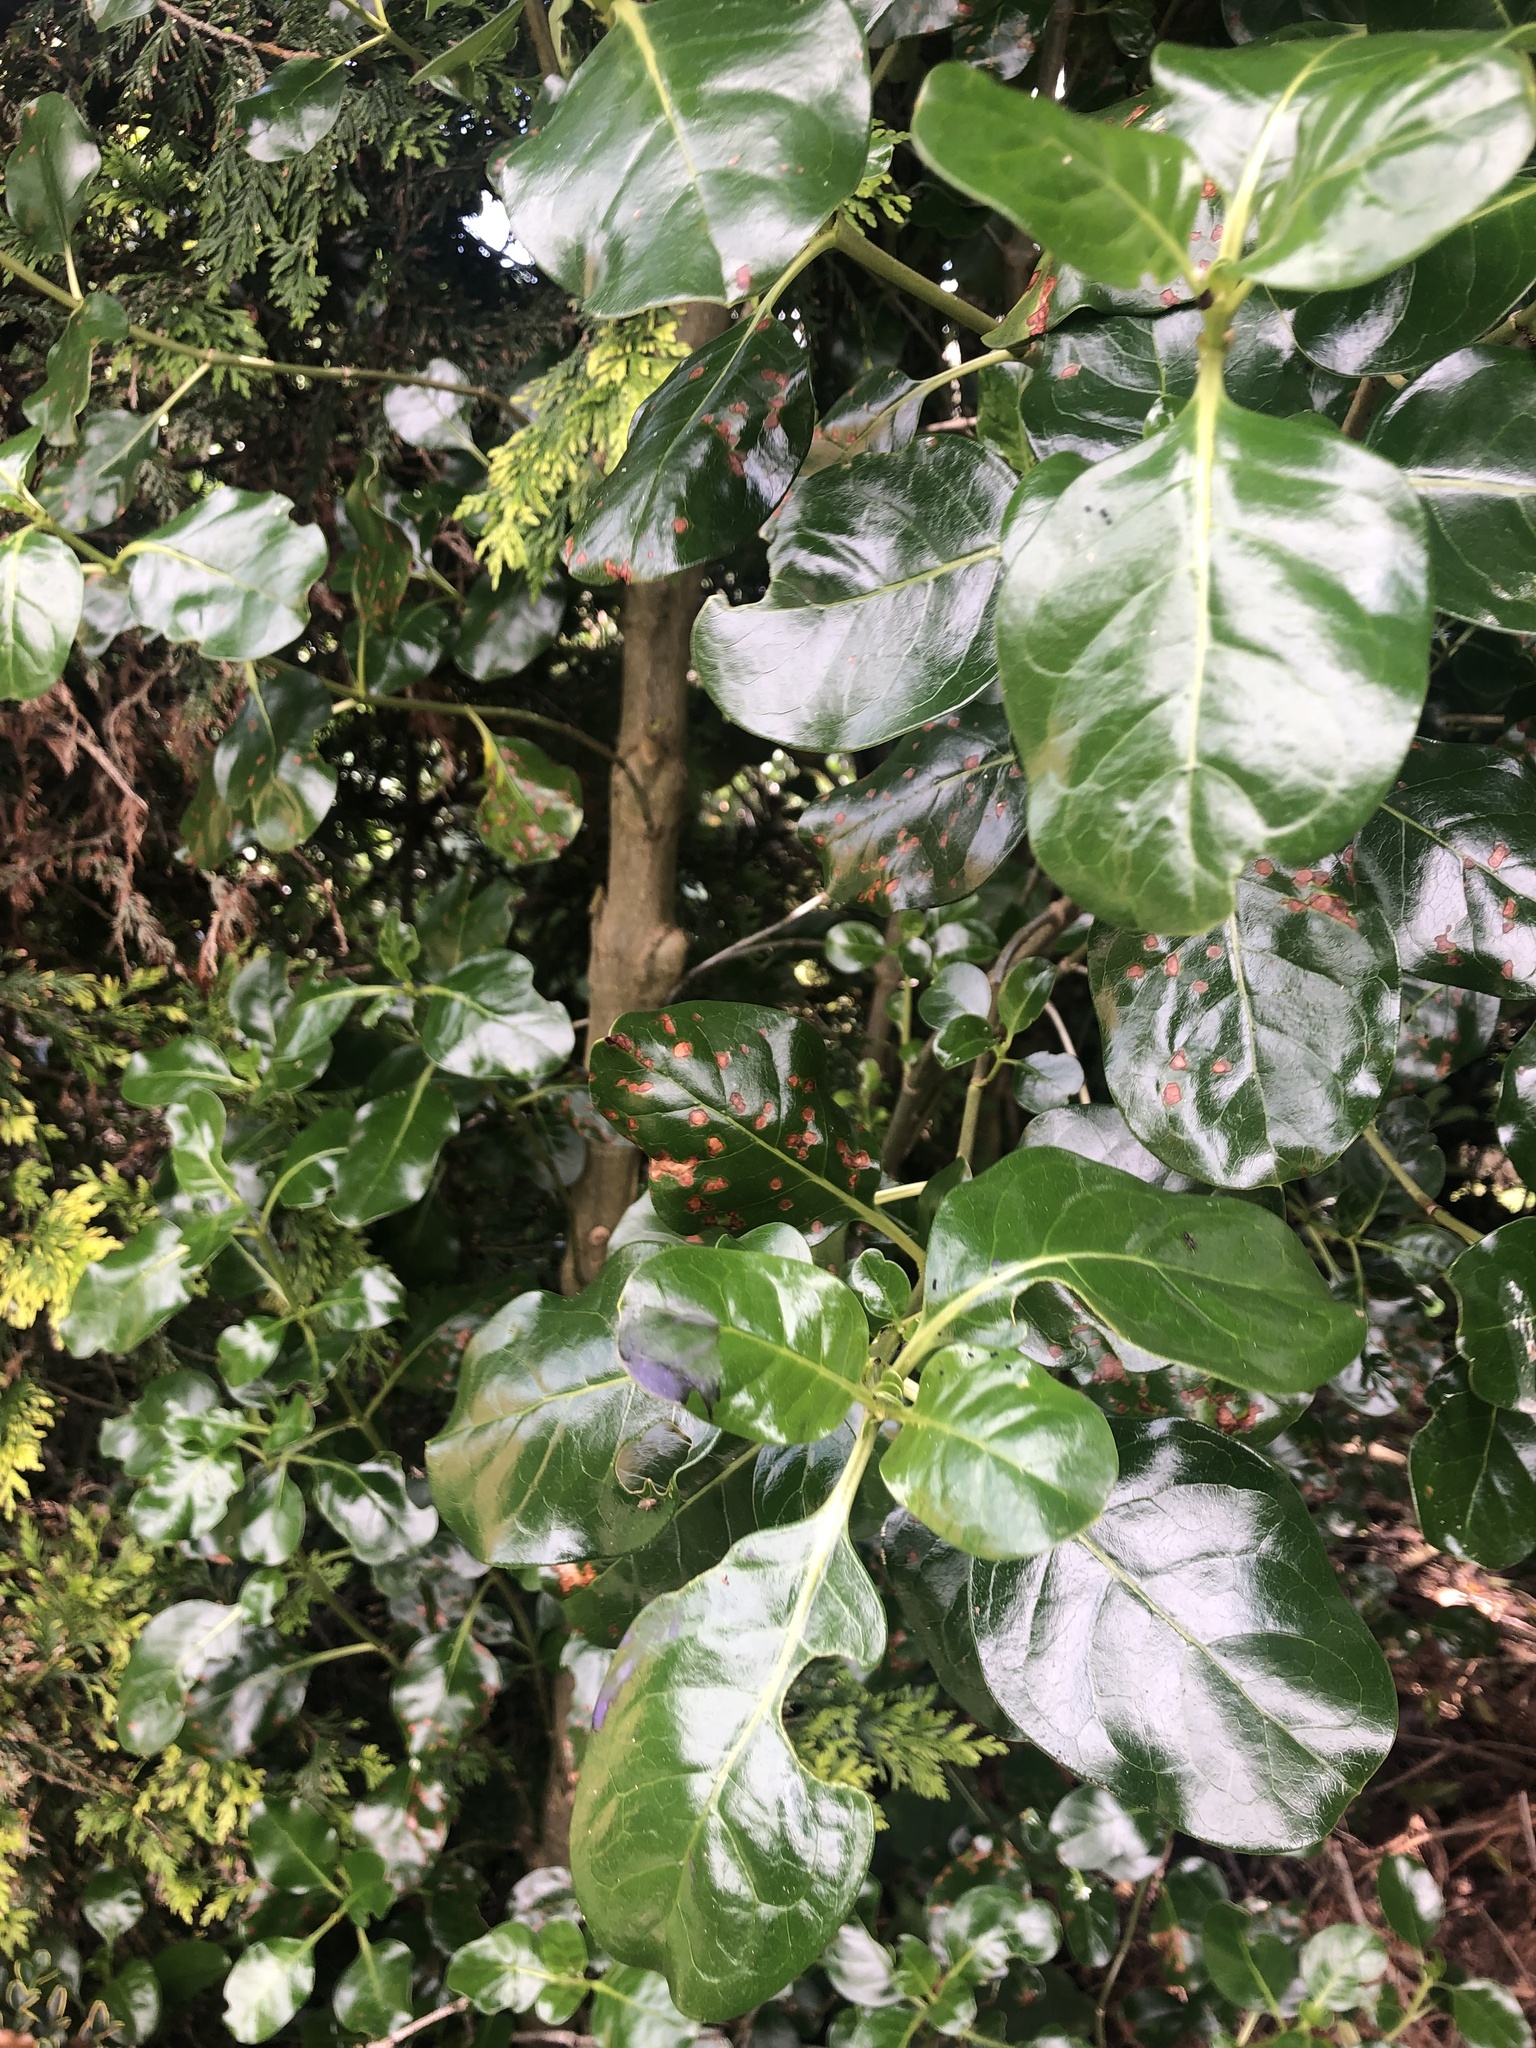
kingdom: Plantae
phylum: Tracheophyta
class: Magnoliopsida
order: Gentianales
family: Rubiaceae
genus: Coprosma
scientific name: Coprosma repens
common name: Tree bedstraw
